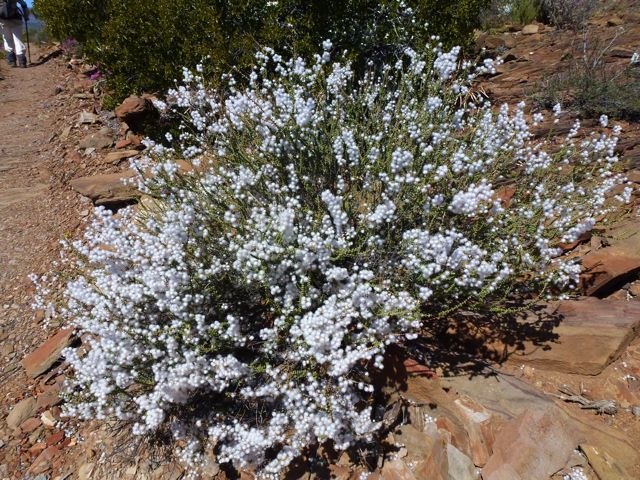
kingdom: Plantae
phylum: Tracheophyta
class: Magnoliopsida
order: Asterales
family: Asteraceae
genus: Eriocephalus
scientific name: Eriocephalus ericoides
